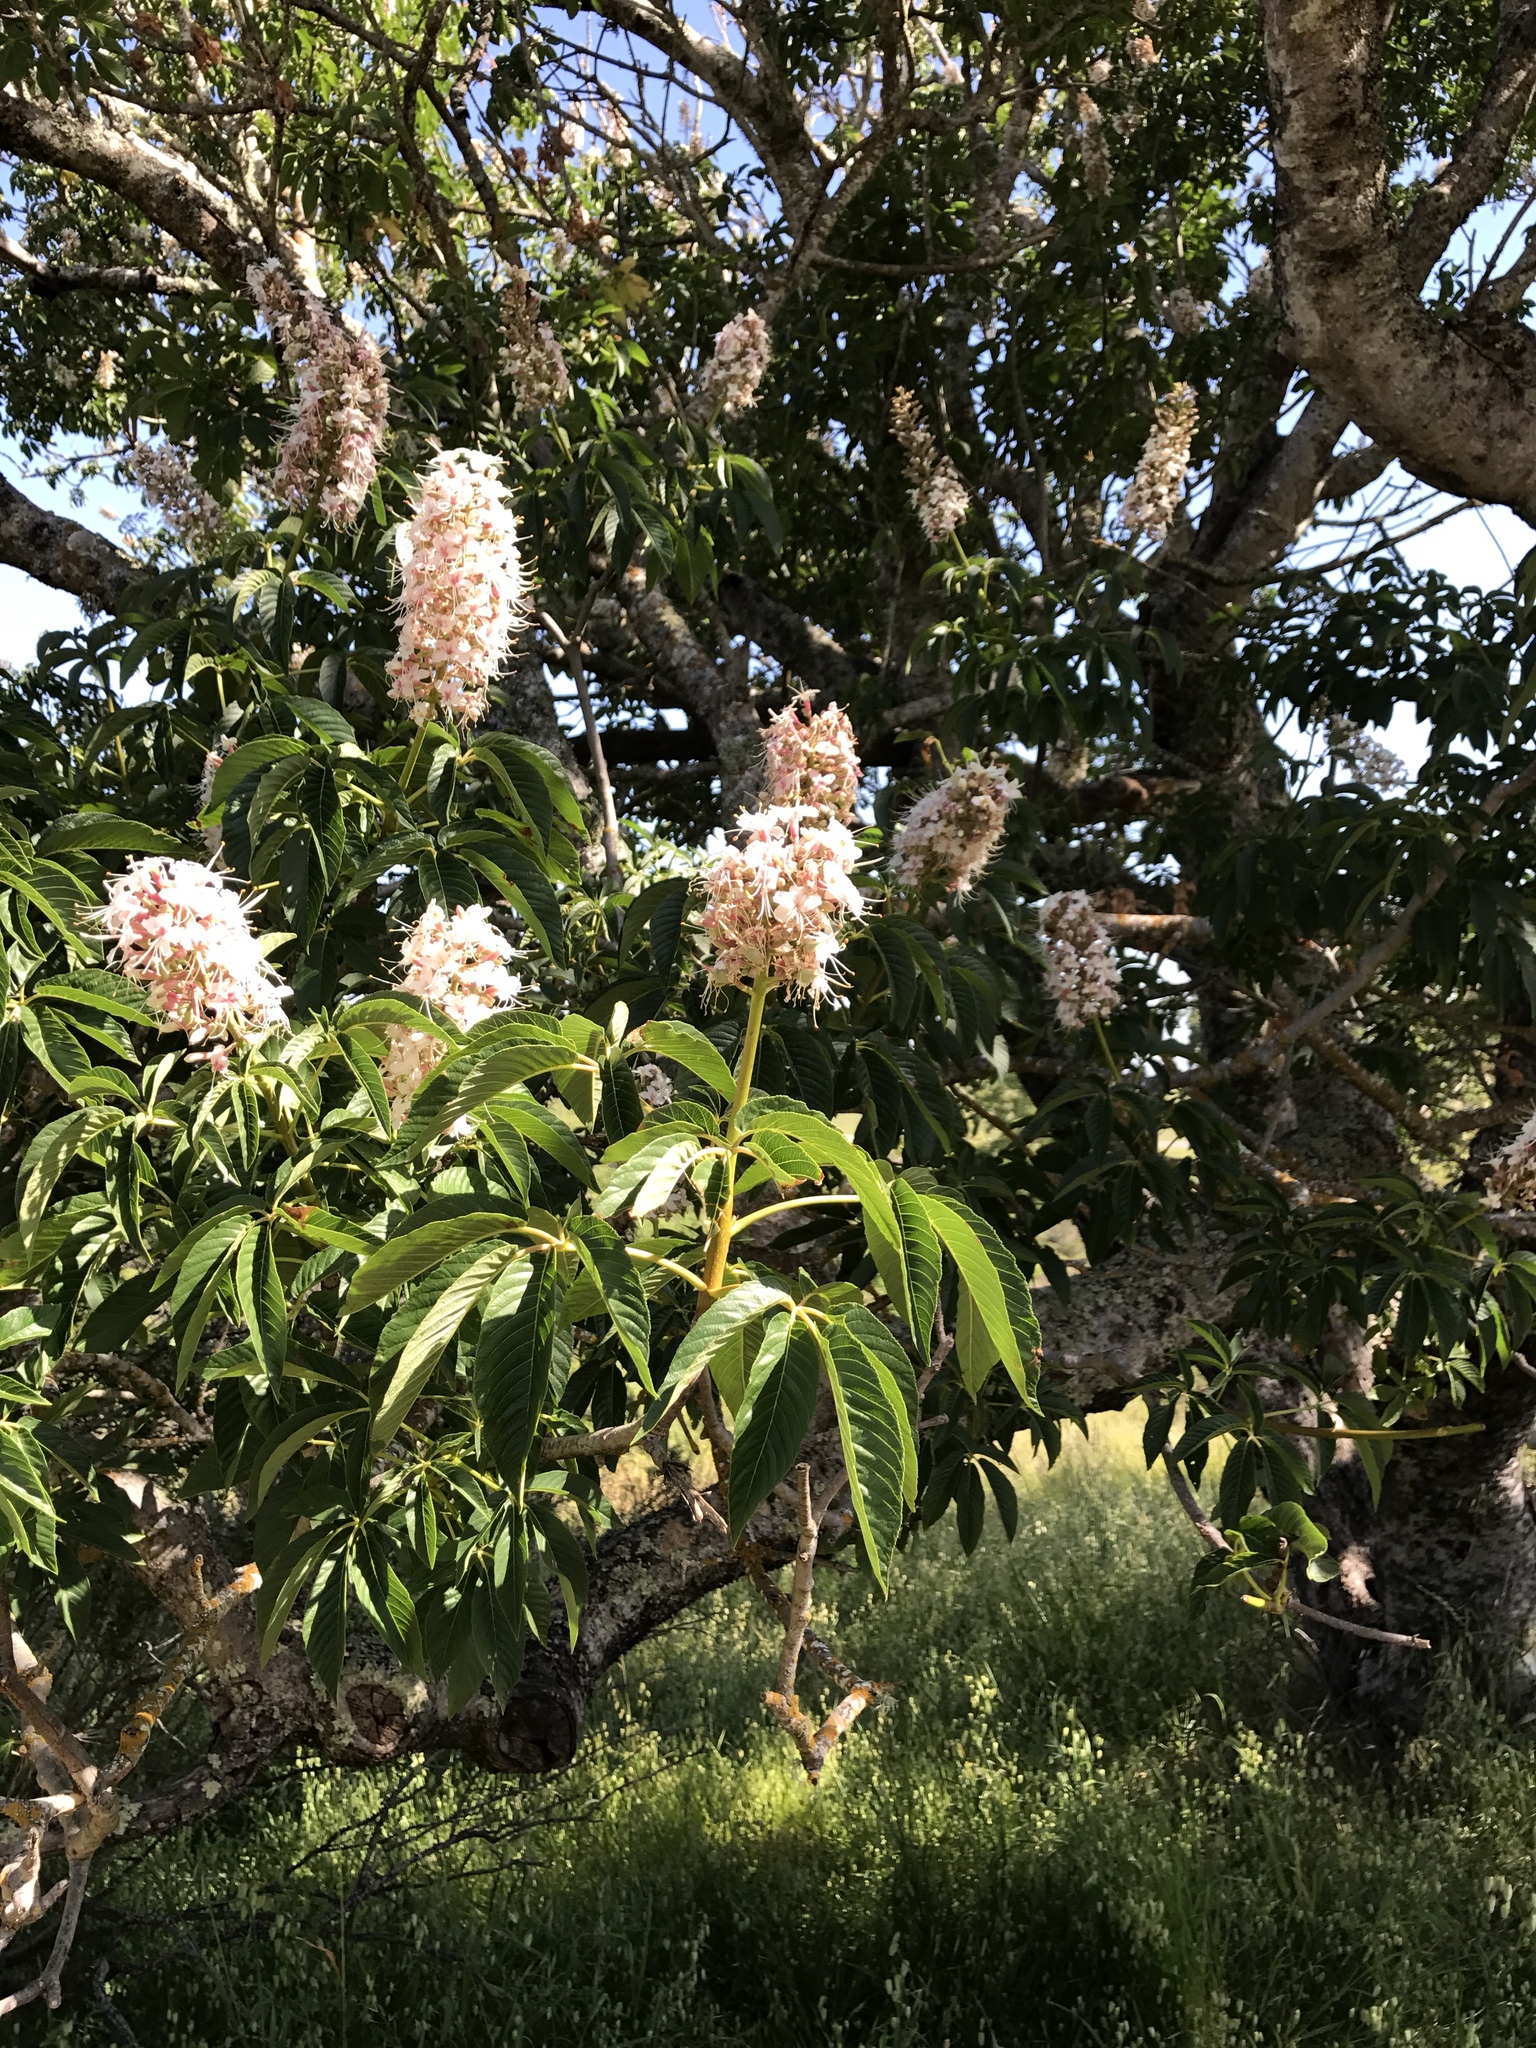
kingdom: Plantae
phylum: Tracheophyta
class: Magnoliopsida
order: Sapindales
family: Sapindaceae
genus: Aesculus
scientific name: Aesculus californica
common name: California buckeye
